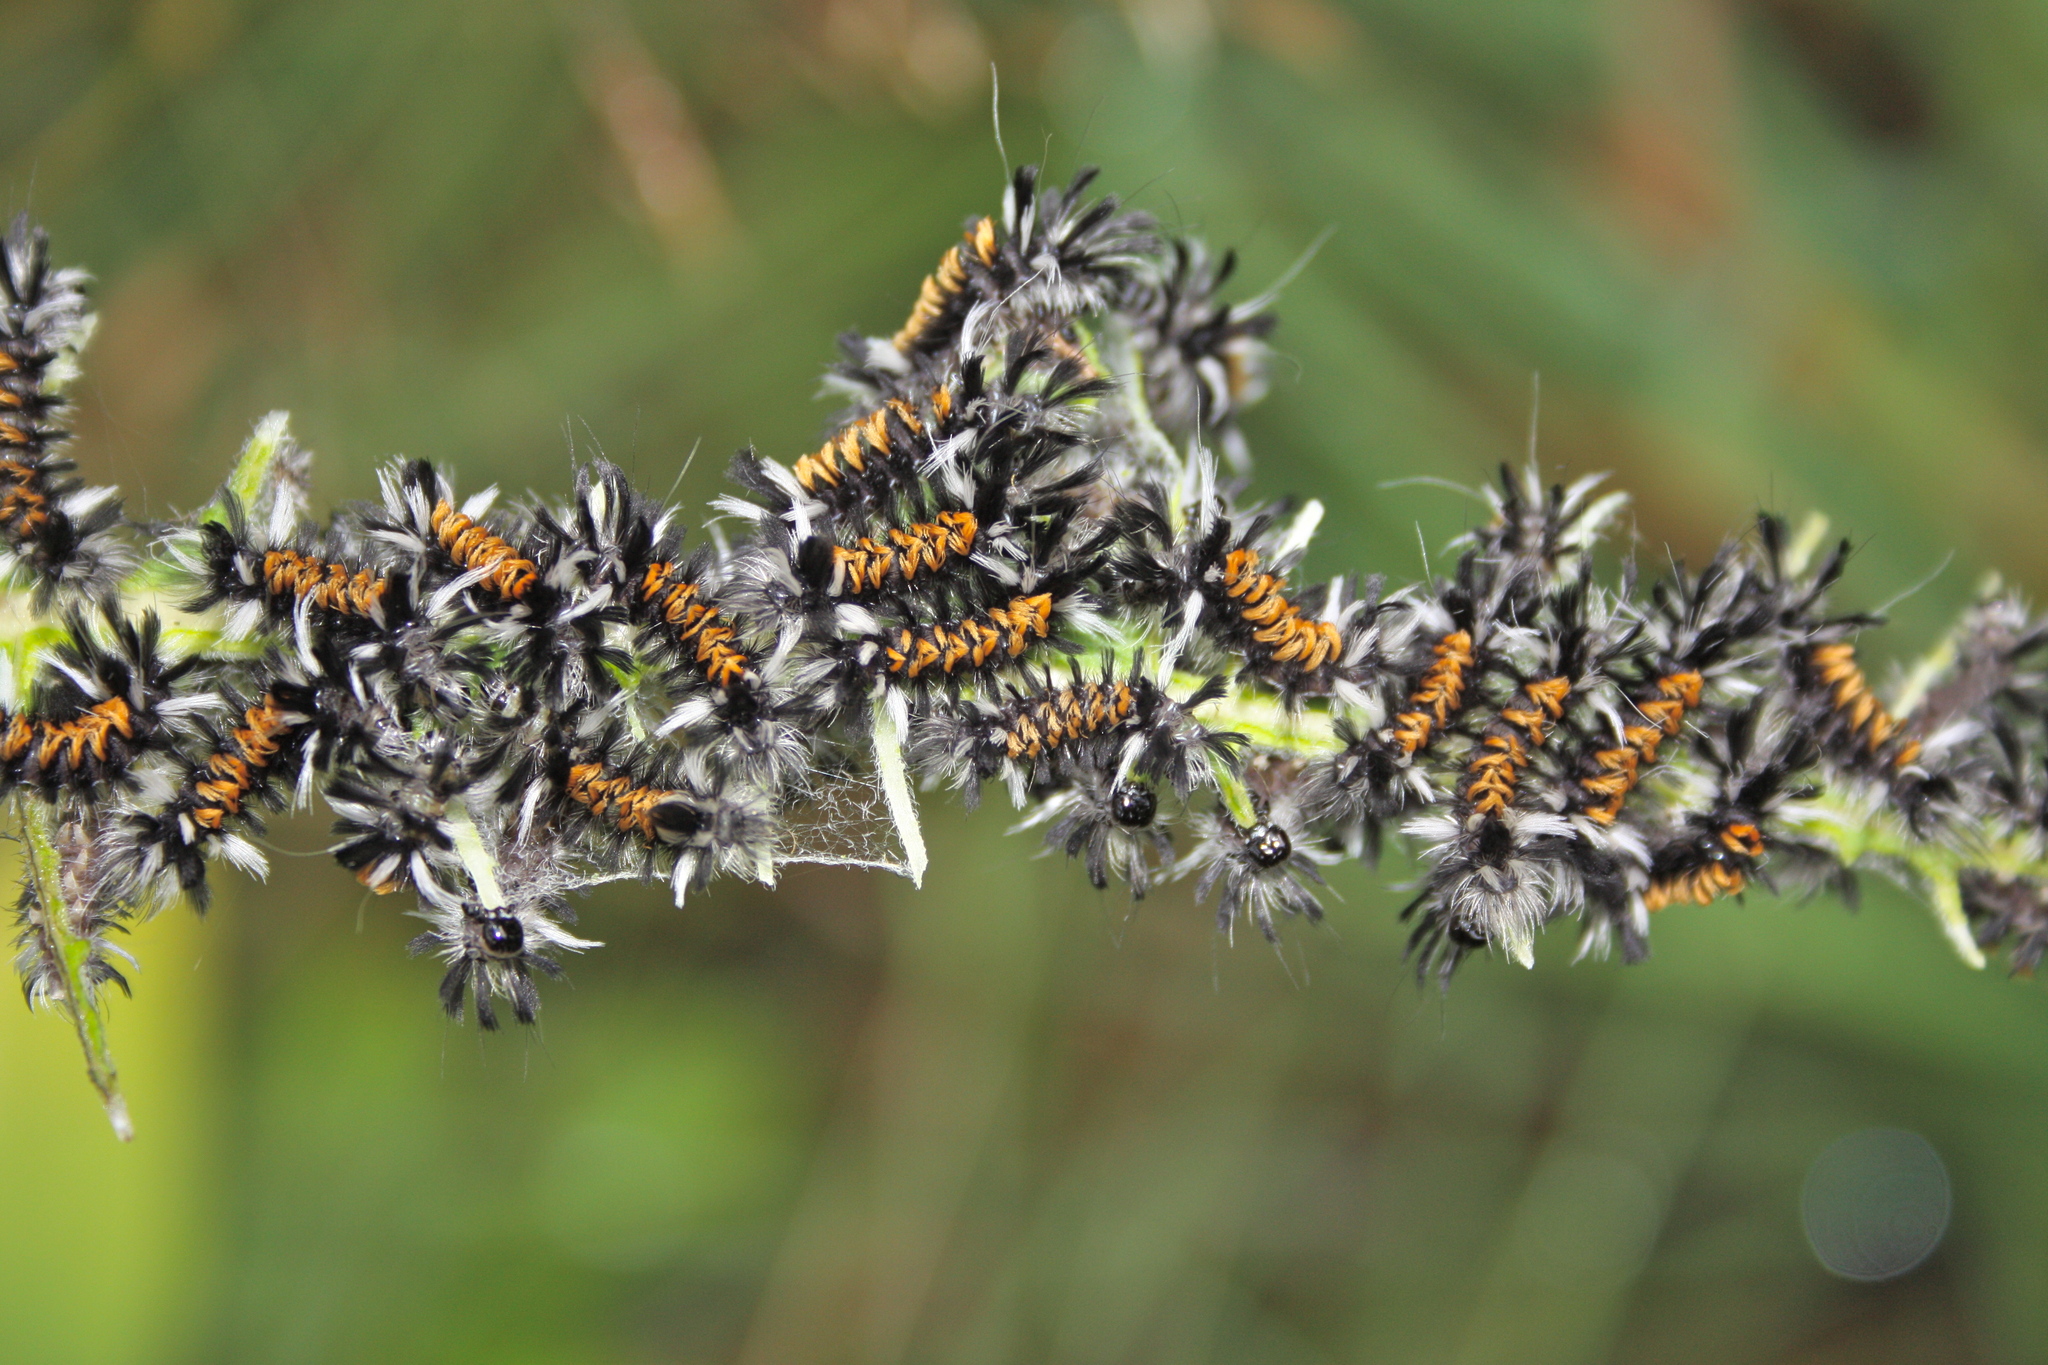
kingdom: Animalia
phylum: Arthropoda
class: Insecta
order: Lepidoptera
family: Erebidae
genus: Euchaetes
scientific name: Euchaetes egle
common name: Milkweed tussock moth
